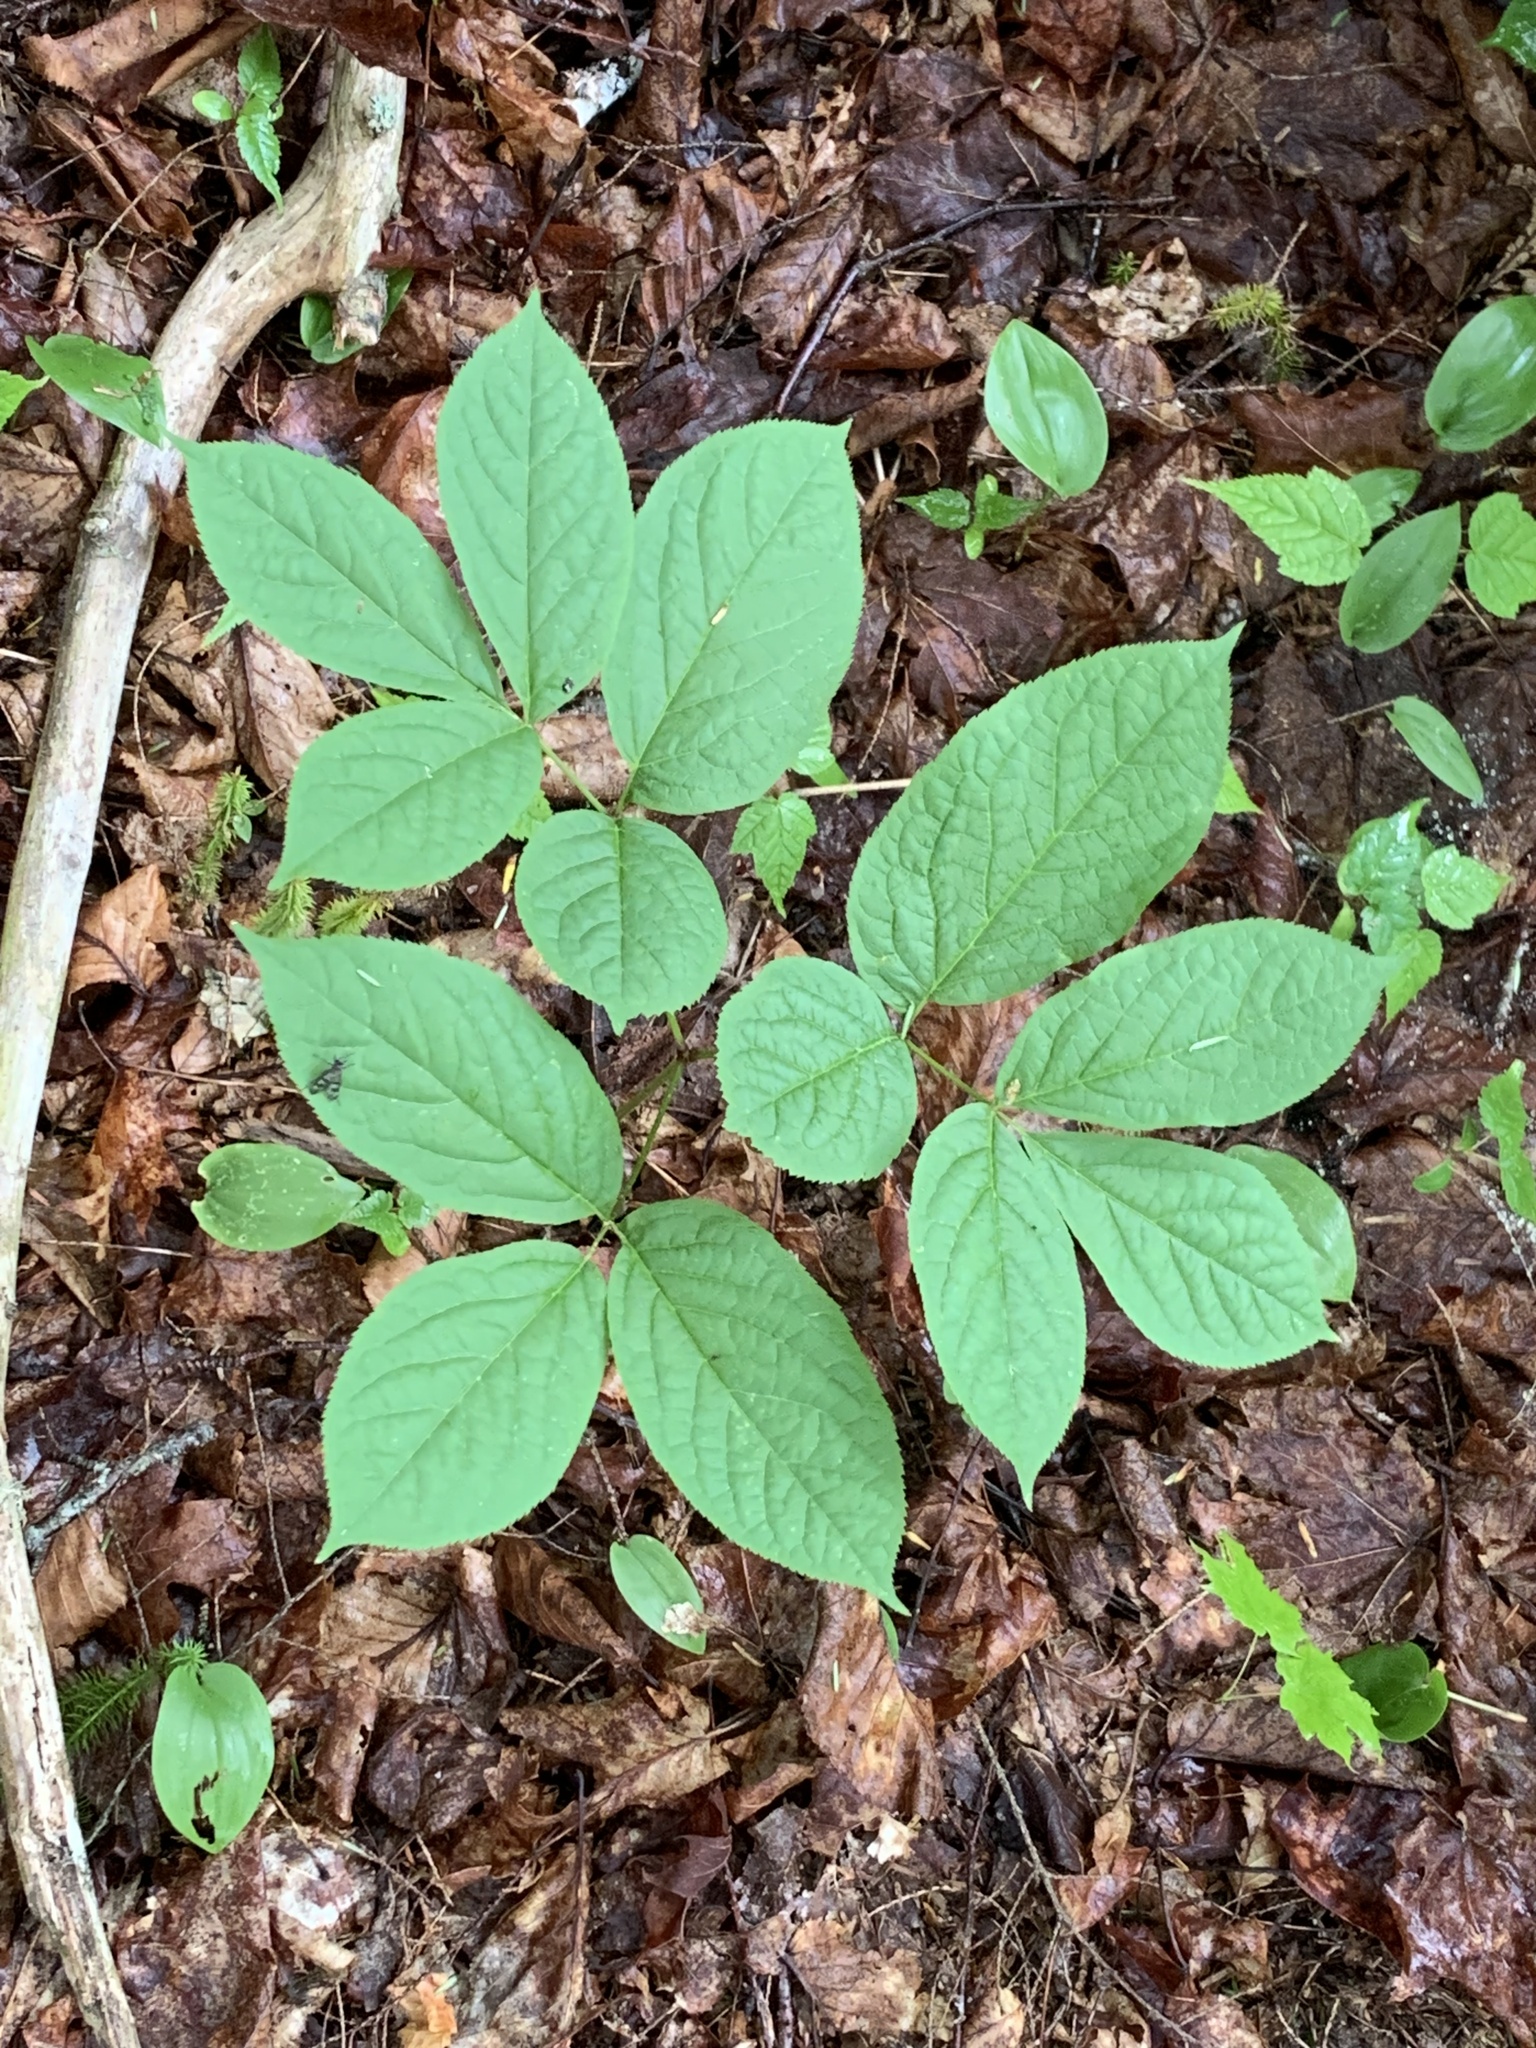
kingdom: Plantae
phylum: Tracheophyta
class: Magnoliopsida
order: Apiales
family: Araliaceae
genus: Aralia
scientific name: Aralia nudicaulis
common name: Wild sarsaparilla
